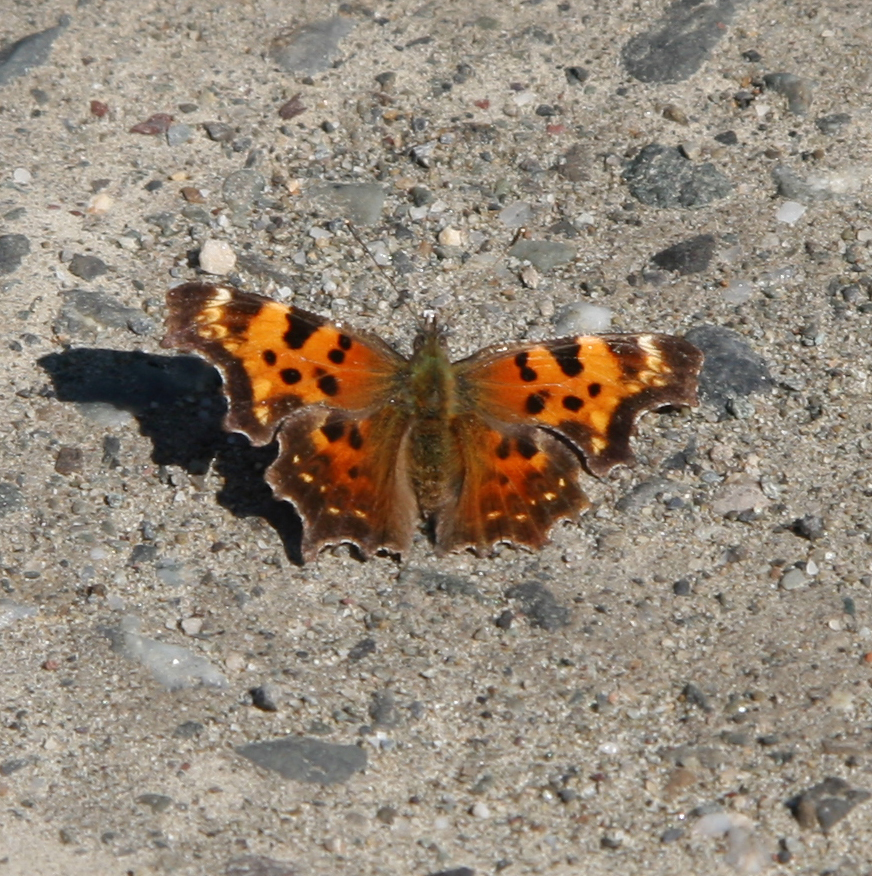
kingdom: Animalia
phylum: Arthropoda
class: Insecta
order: Lepidoptera
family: Nymphalidae
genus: Polygonia
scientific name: Polygonia faunus
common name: Green comma
